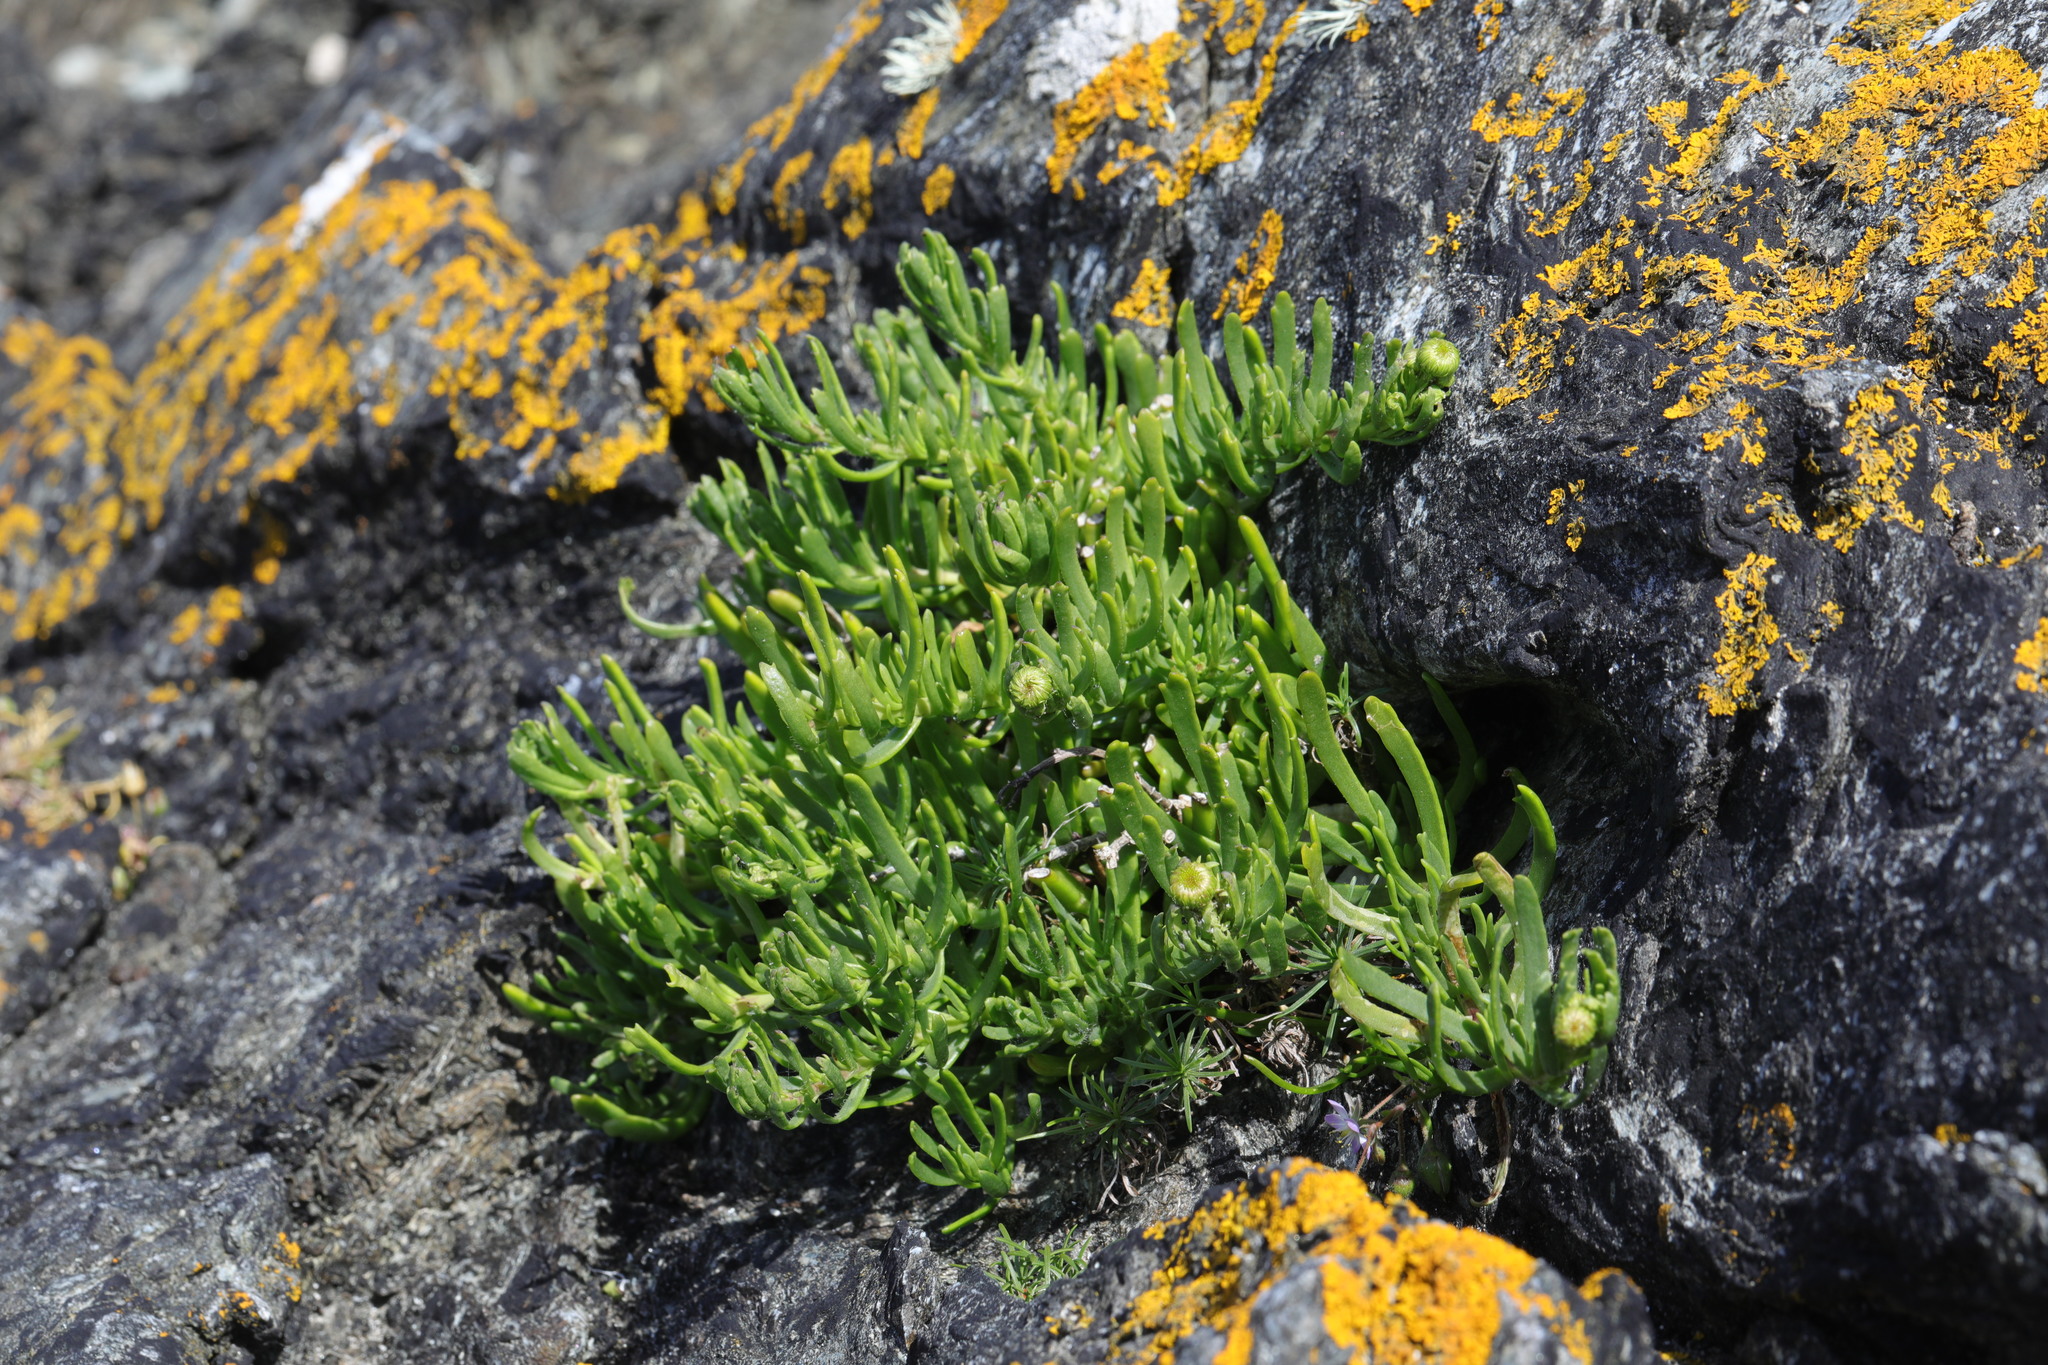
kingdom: Plantae
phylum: Tracheophyta
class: Magnoliopsida
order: Asterales
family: Asteraceae
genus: Limbarda
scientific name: Limbarda crithmoides
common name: Golden samphire
